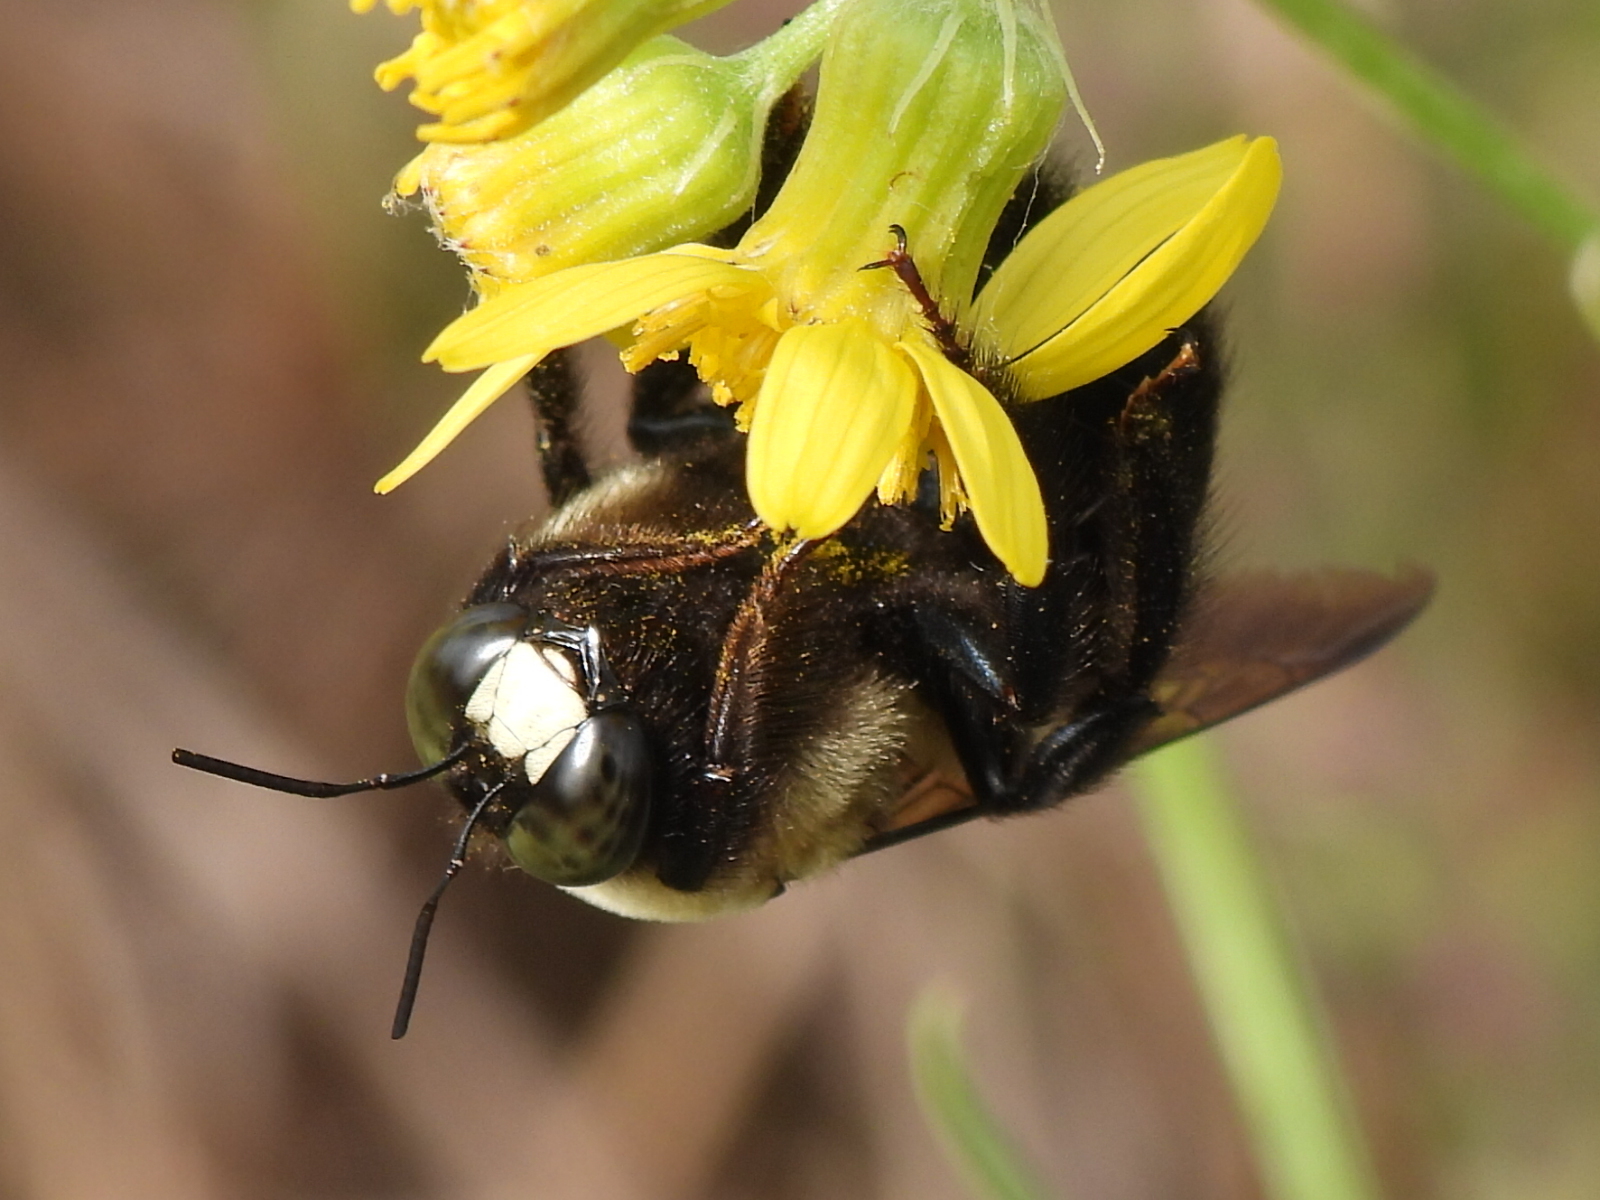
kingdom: Animalia
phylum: Arthropoda
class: Insecta
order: Hymenoptera
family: Apidae
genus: Xylocopa
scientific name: Xylocopa virginica
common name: Carpenter bee
